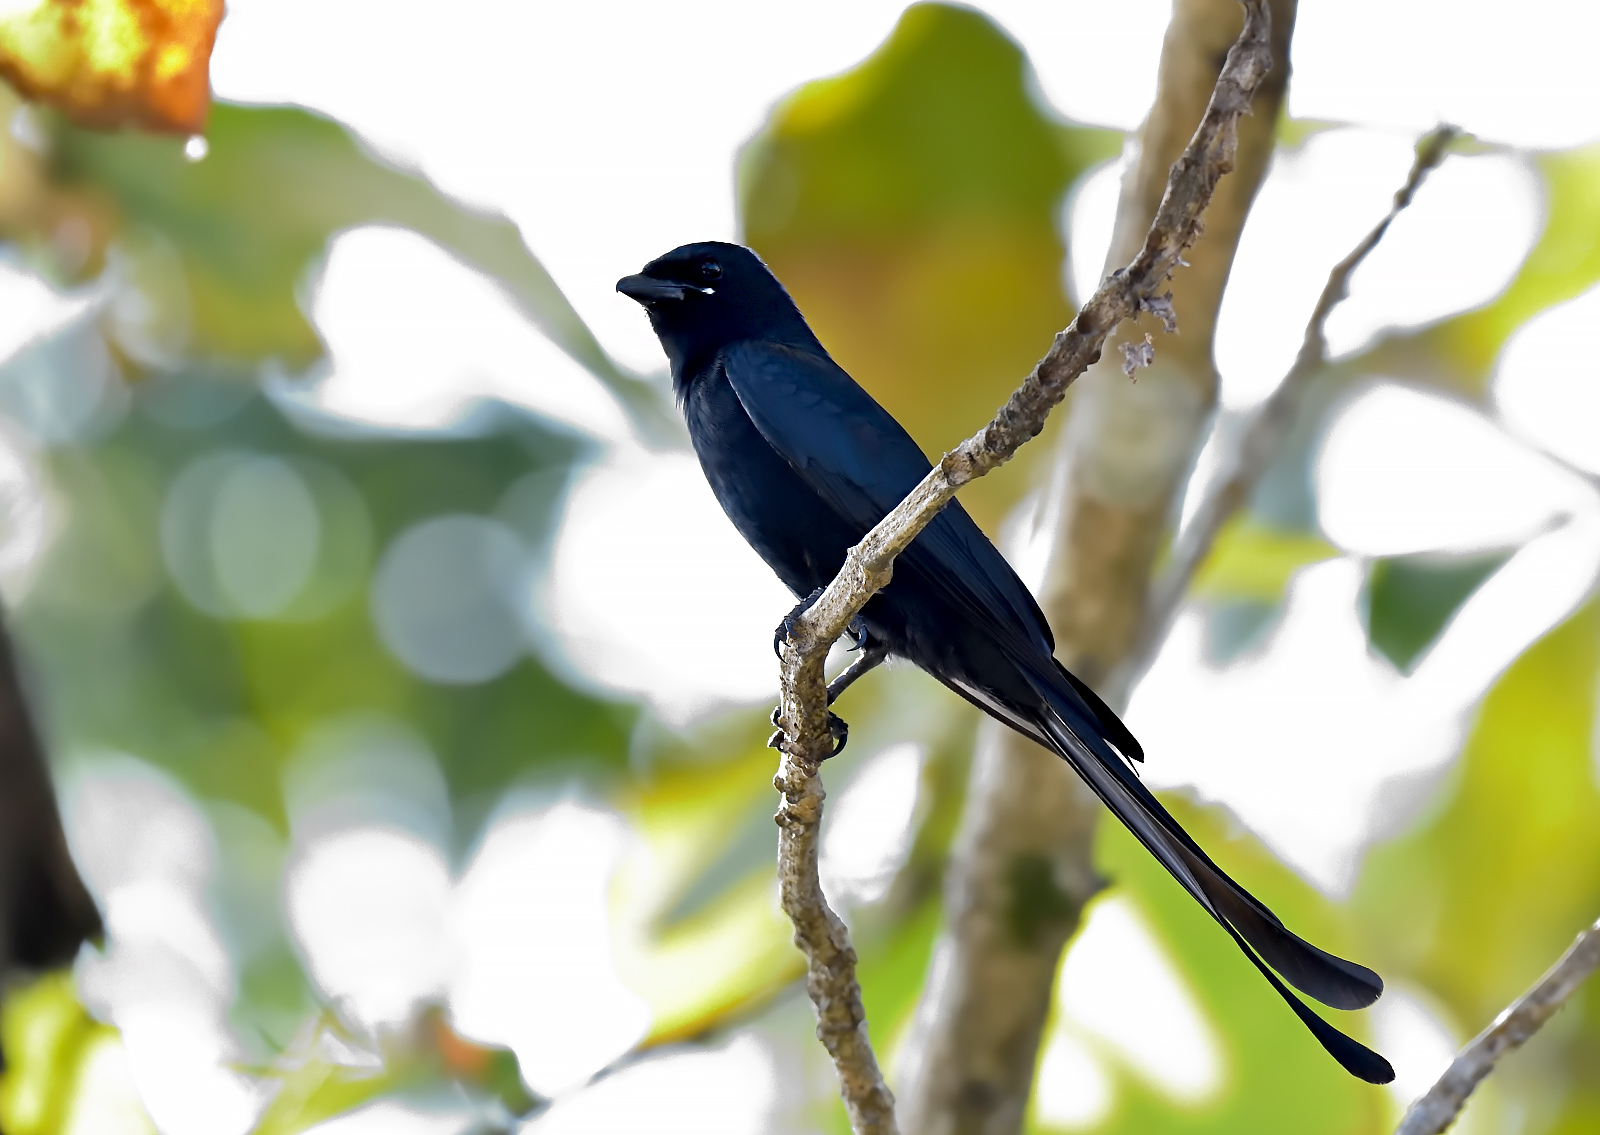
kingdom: Animalia
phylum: Chordata
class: Aves
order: Passeriformes
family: Dicruridae
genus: Dicrurus
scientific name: Dicrurus macrocercus
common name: Black drongo
